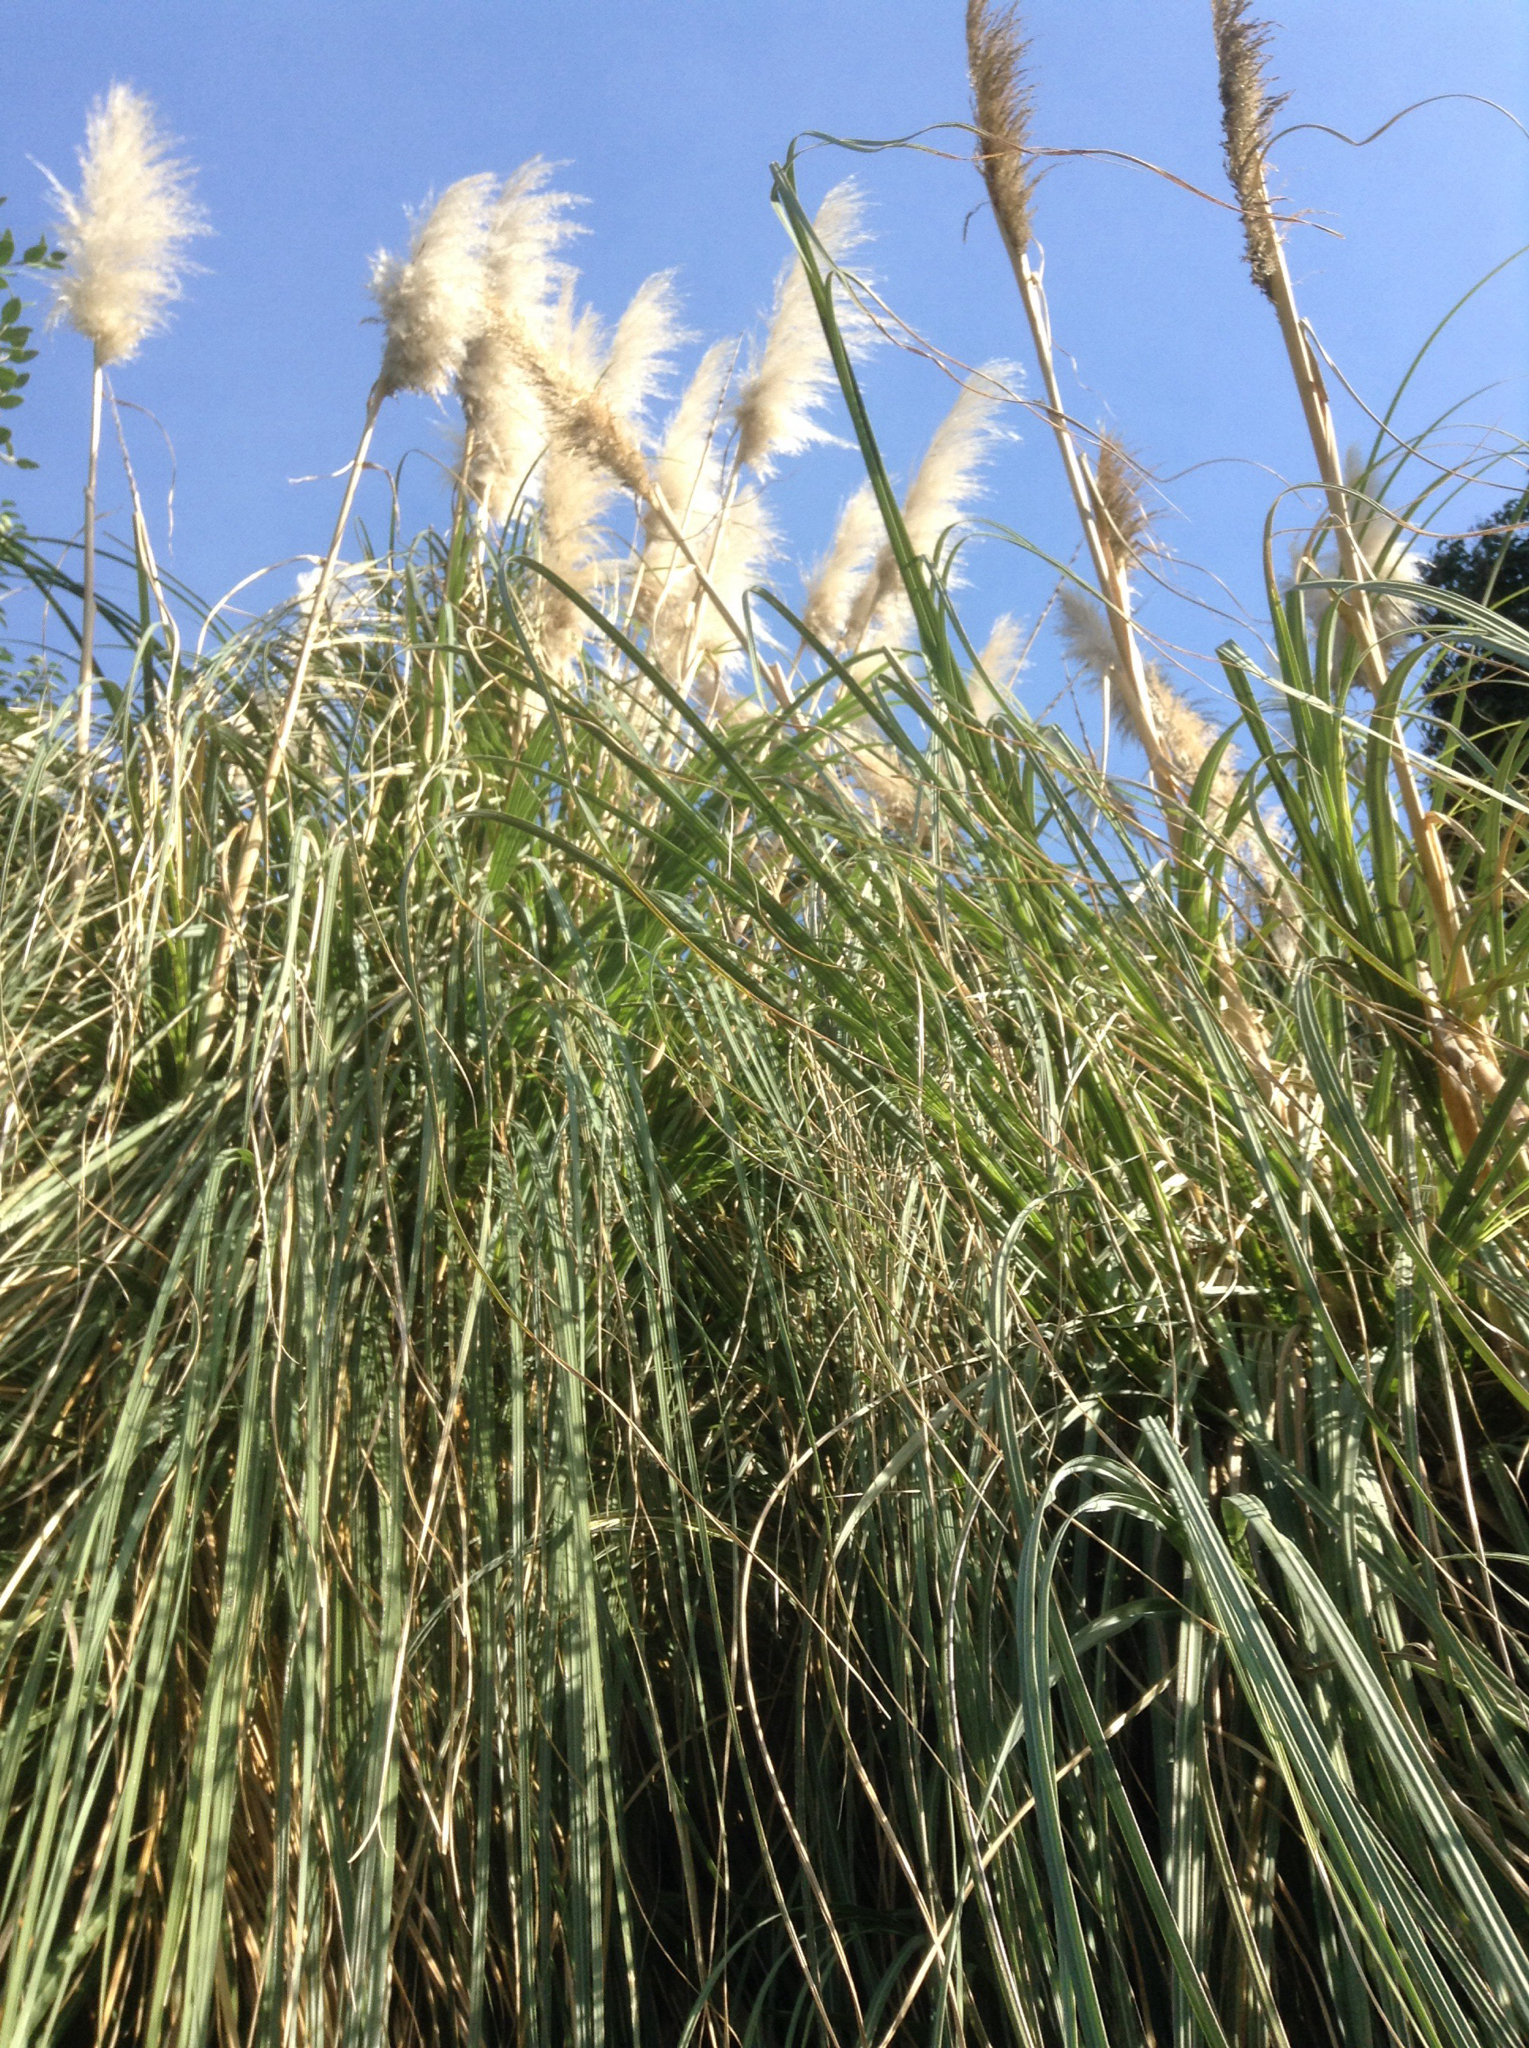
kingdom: Plantae
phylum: Tracheophyta
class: Liliopsida
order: Poales
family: Poaceae
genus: Cortaderia
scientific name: Cortaderia selloana
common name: Uruguayan pampas grass
